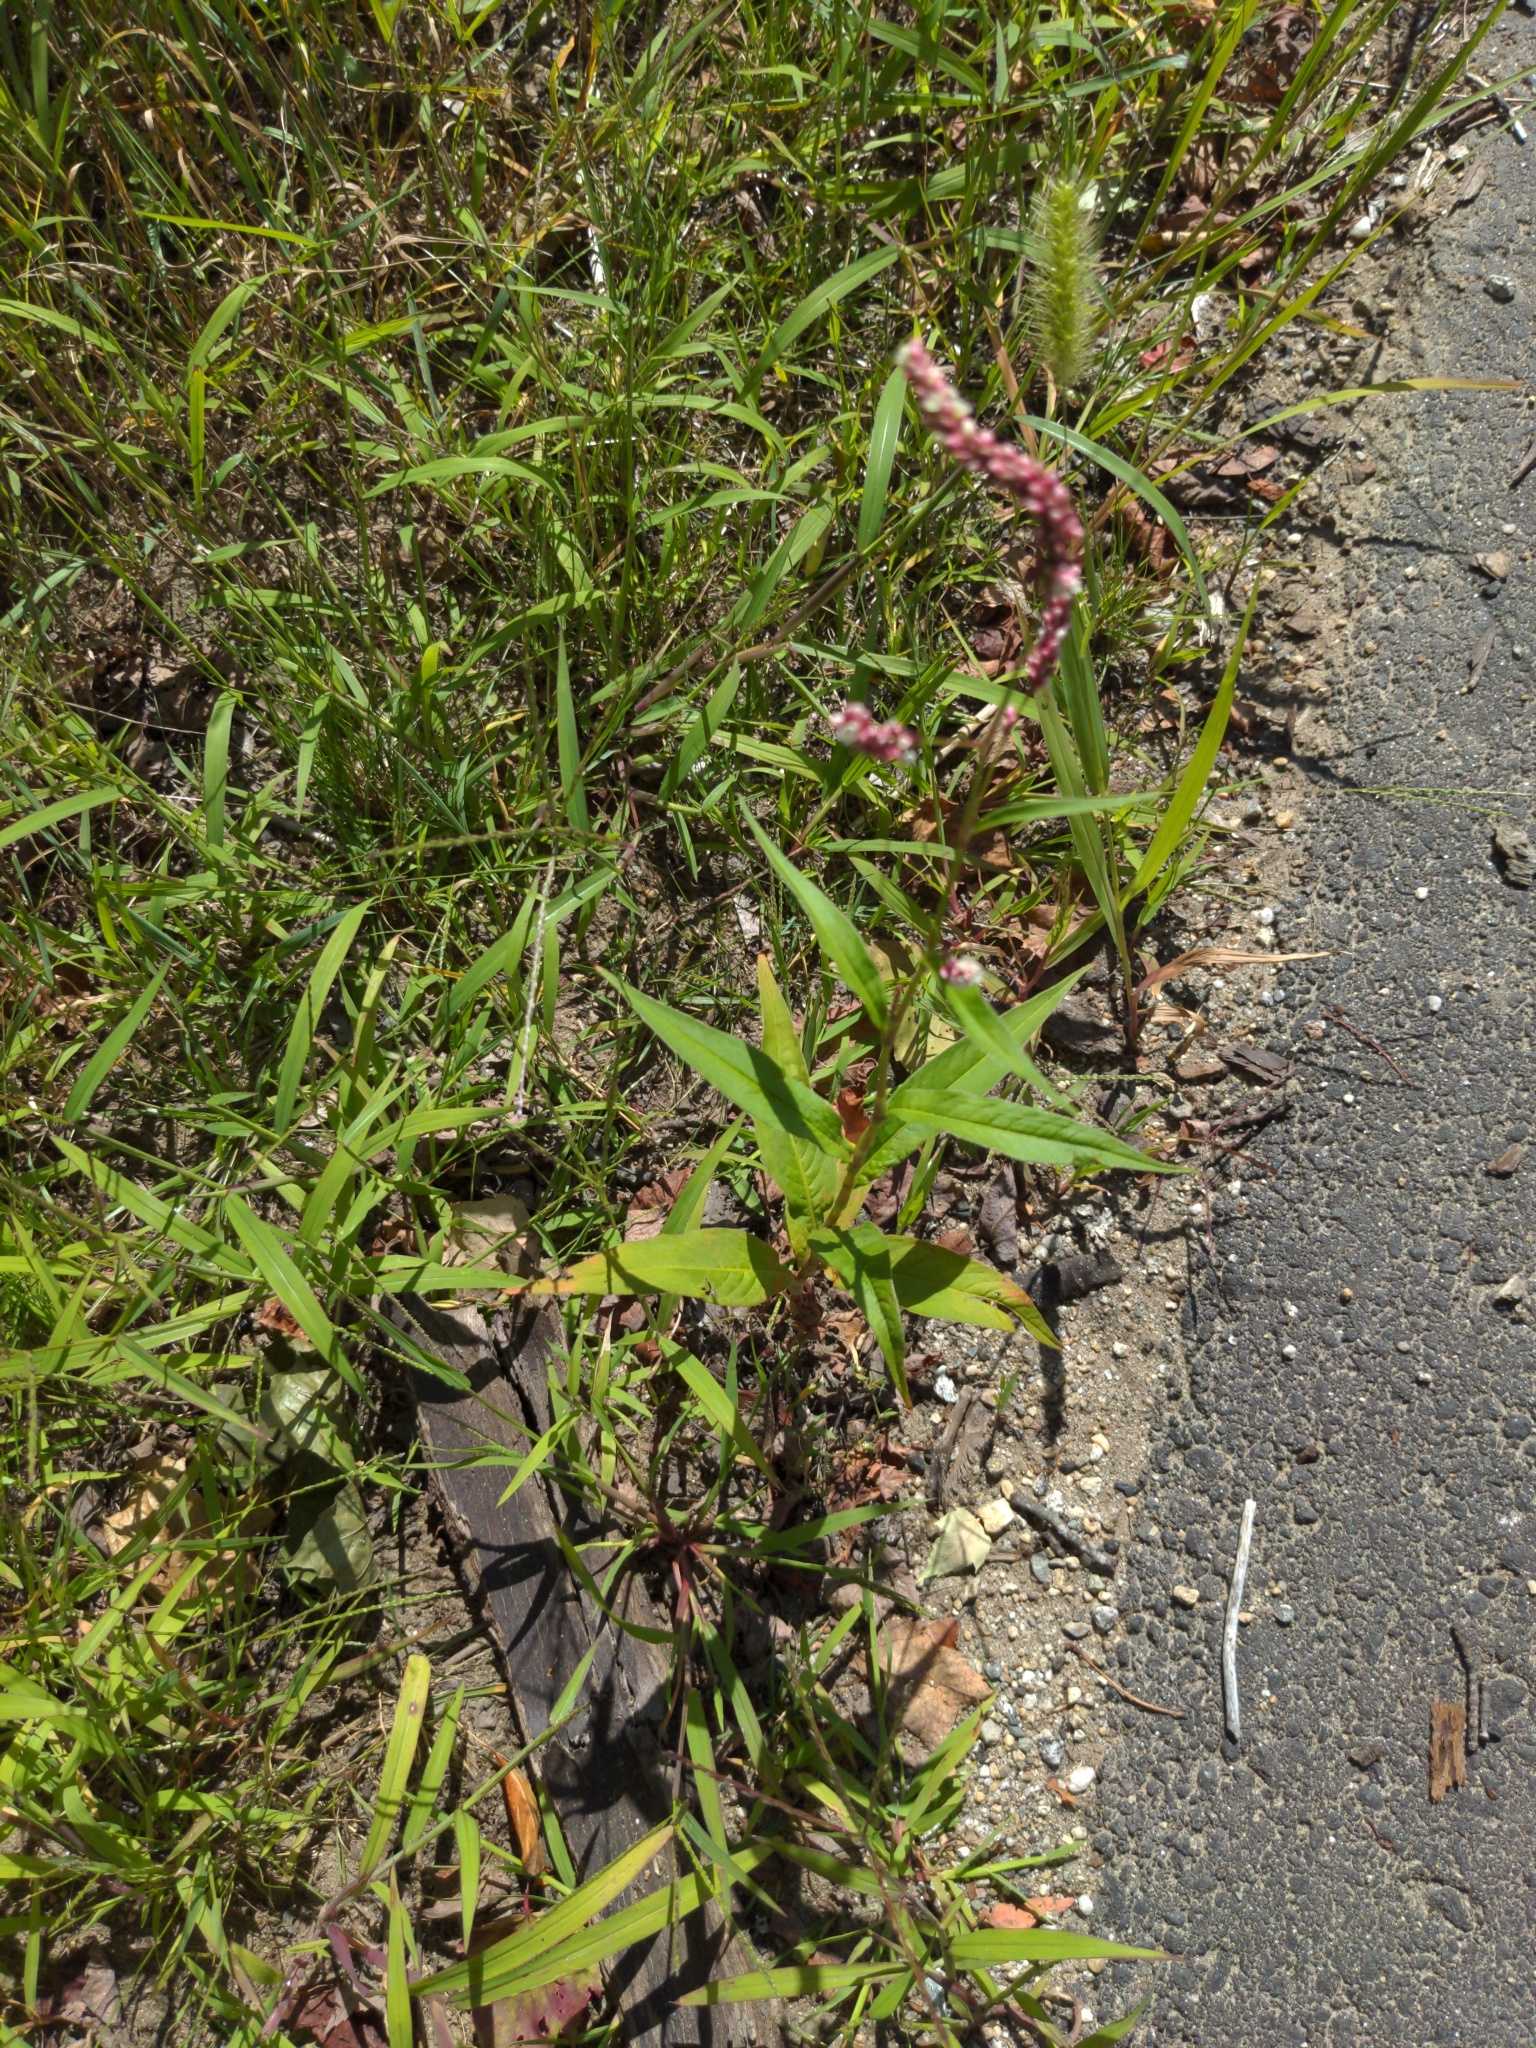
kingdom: Plantae
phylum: Tracheophyta
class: Magnoliopsida
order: Caryophyllales
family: Polygonaceae
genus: Persicaria
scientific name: Persicaria longiseta
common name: Bristly lady's-thumb
